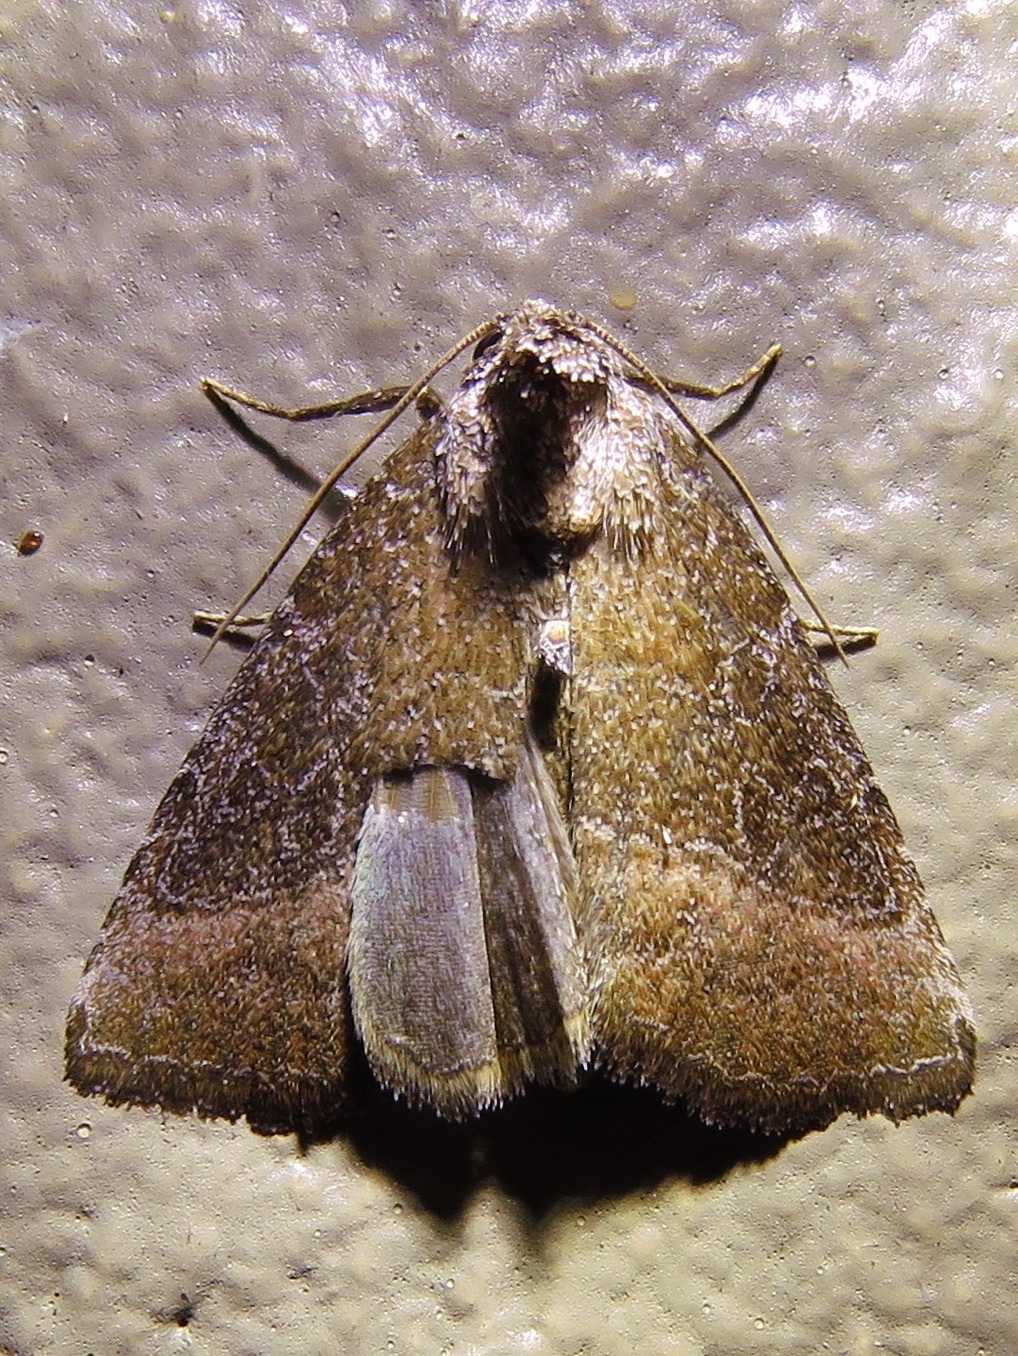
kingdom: Animalia
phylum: Arthropoda
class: Insecta
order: Lepidoptera
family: Noctuidae
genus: Ogdoconta
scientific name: Ogdoconta cinereola
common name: Common pinkband
